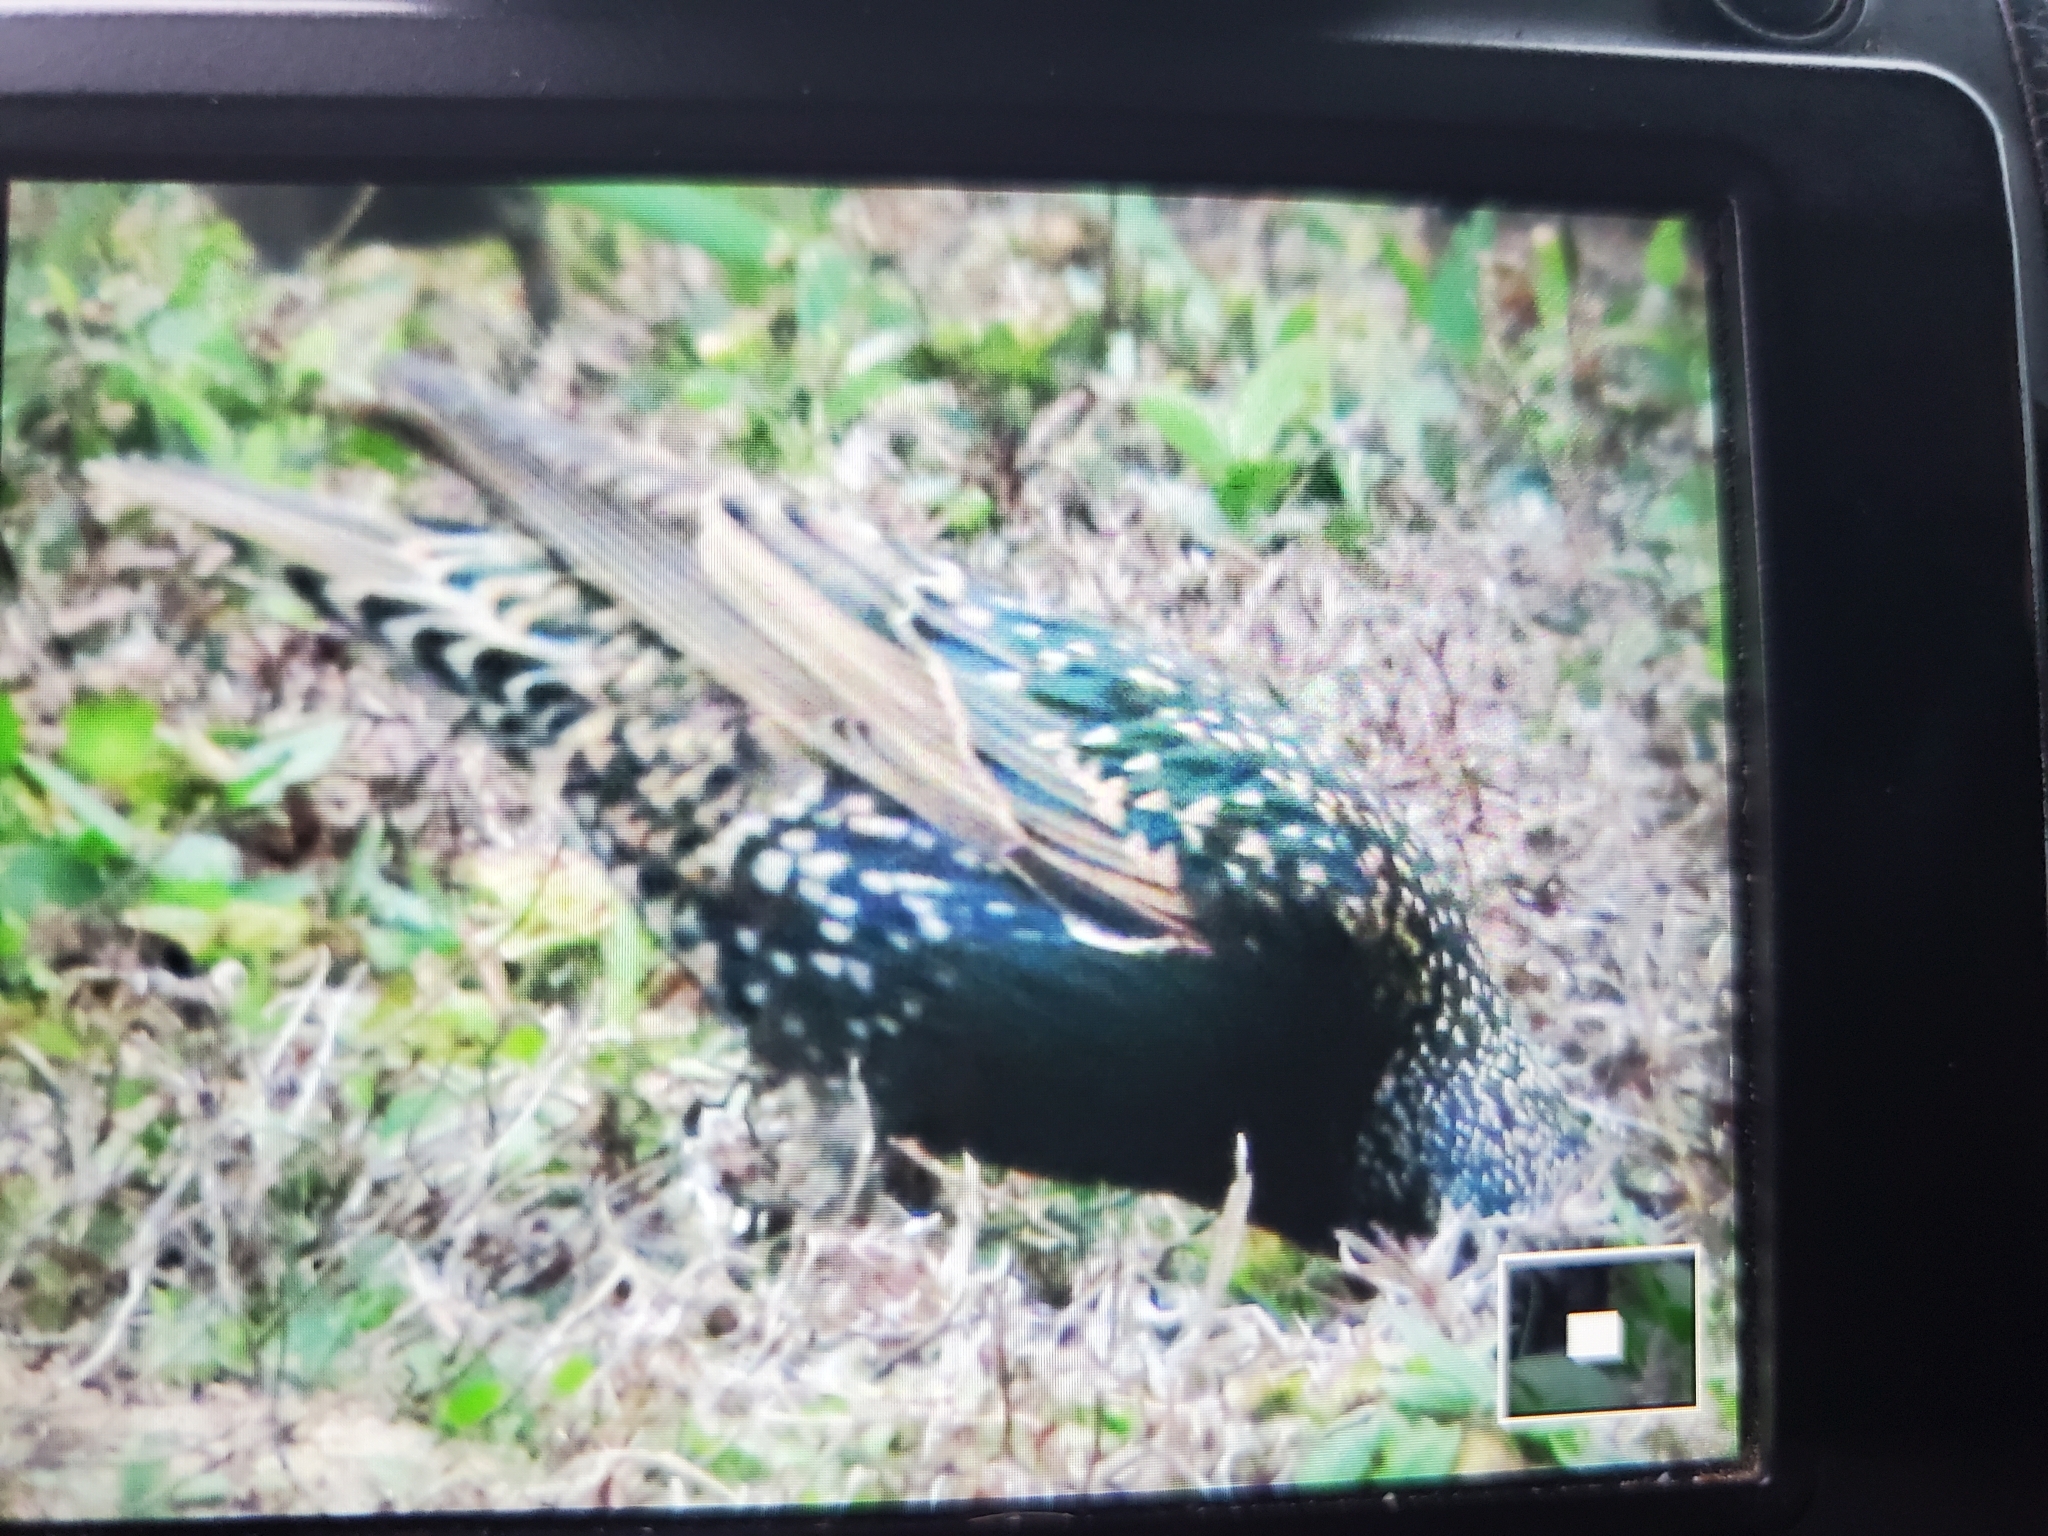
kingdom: Animalia
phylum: Chordata
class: Aves
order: Passeriformes
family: Sturnidae
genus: Sturnus
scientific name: Sturnus vulgaris
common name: Common starling
